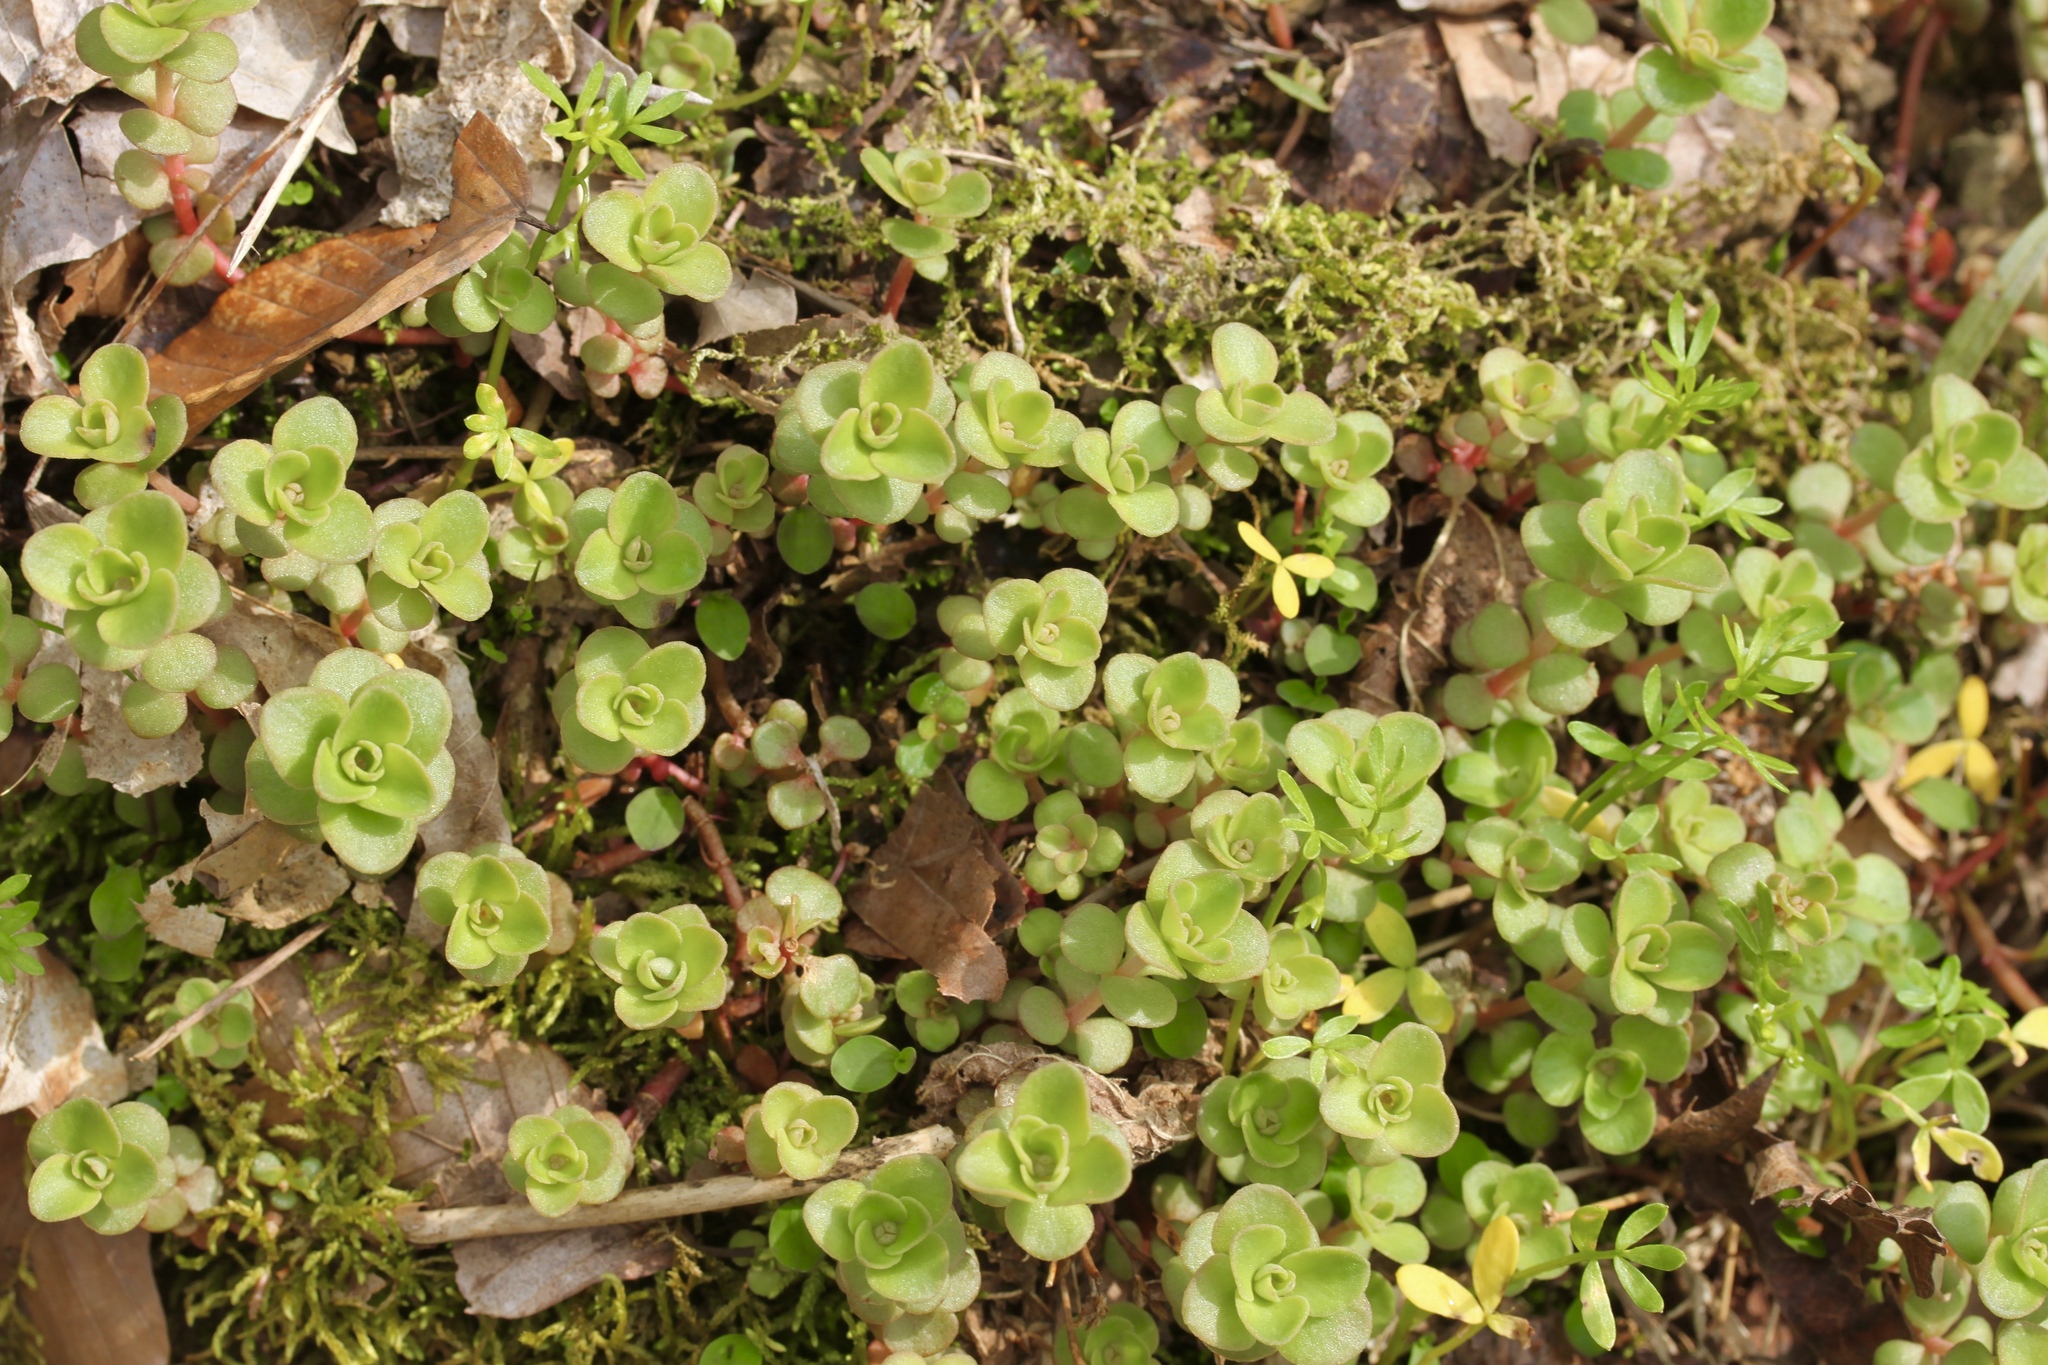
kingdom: Plantae
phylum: Tracheophyta
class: Magnoliopsida
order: Saxifragales
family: Crassulaceae
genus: Sedum
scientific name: Sedum ternatum
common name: Wild stonecrop
